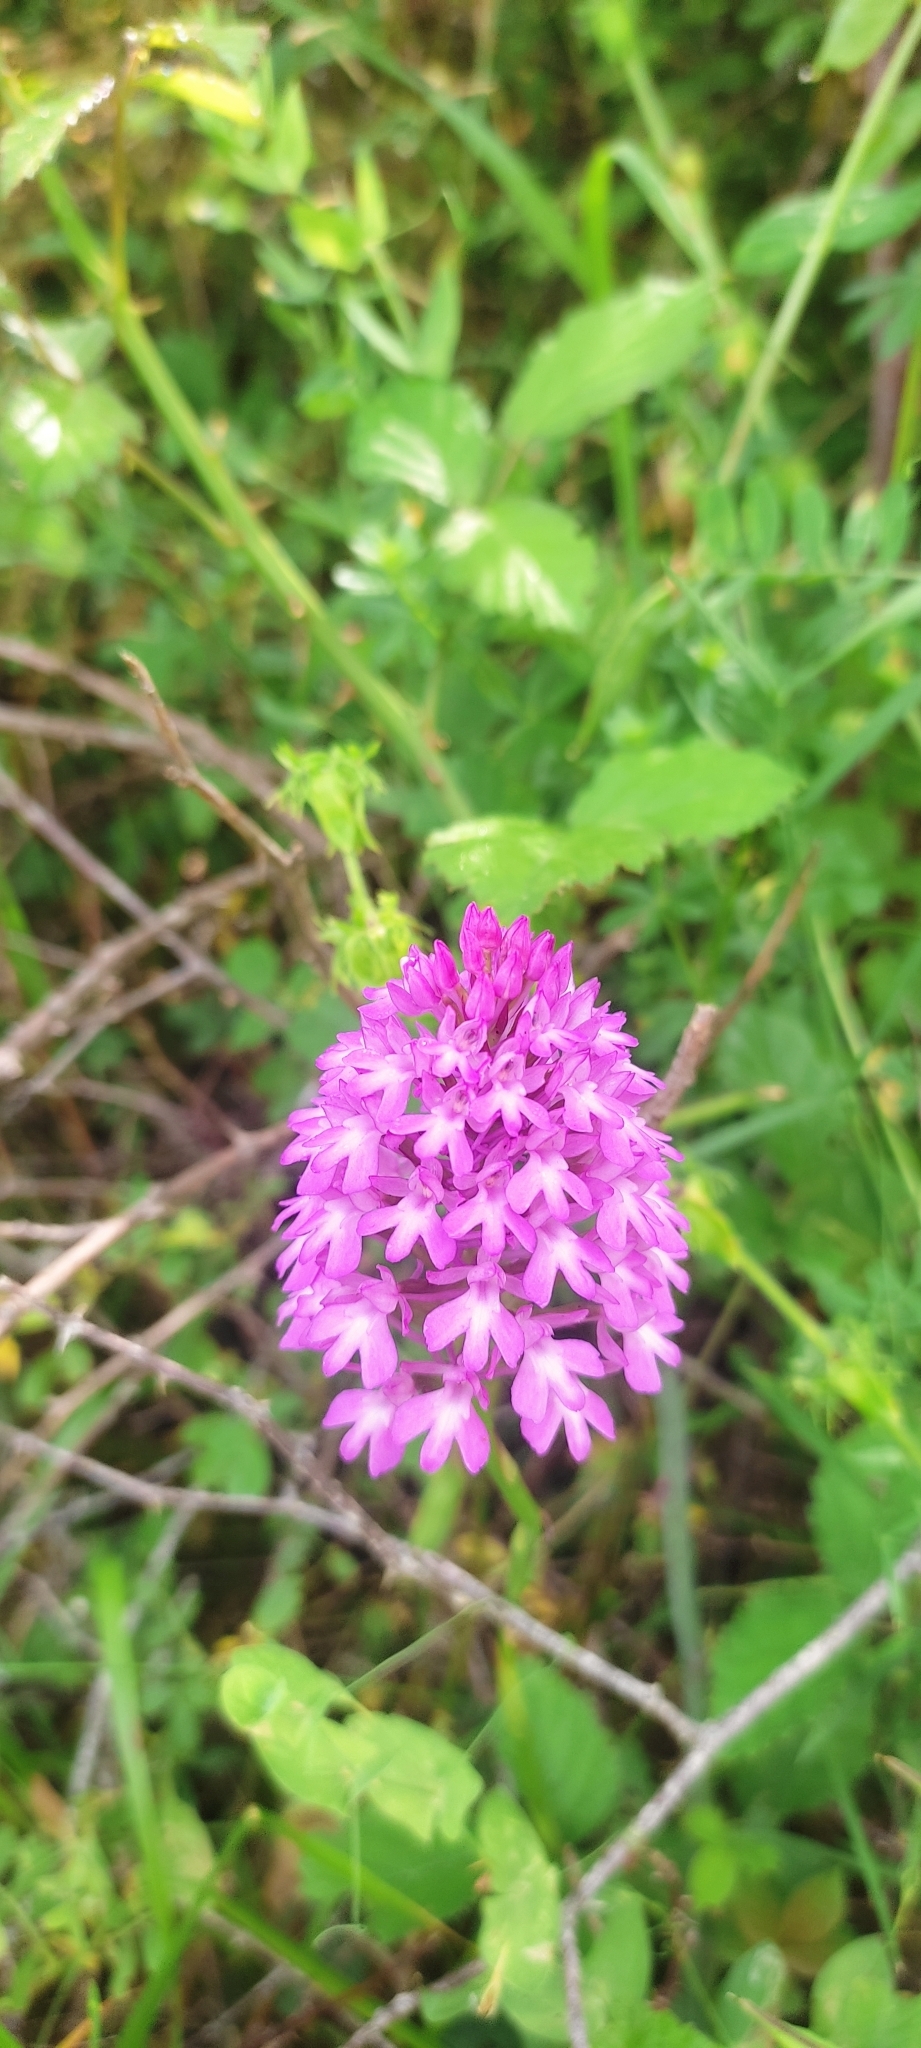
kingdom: Plantae
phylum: Tracheophyta
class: Liliopsida
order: Asparagales
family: Orchidaceae
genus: Anacamptis
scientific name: Anacamptis pyramidalis
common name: Pyramidal orchid
